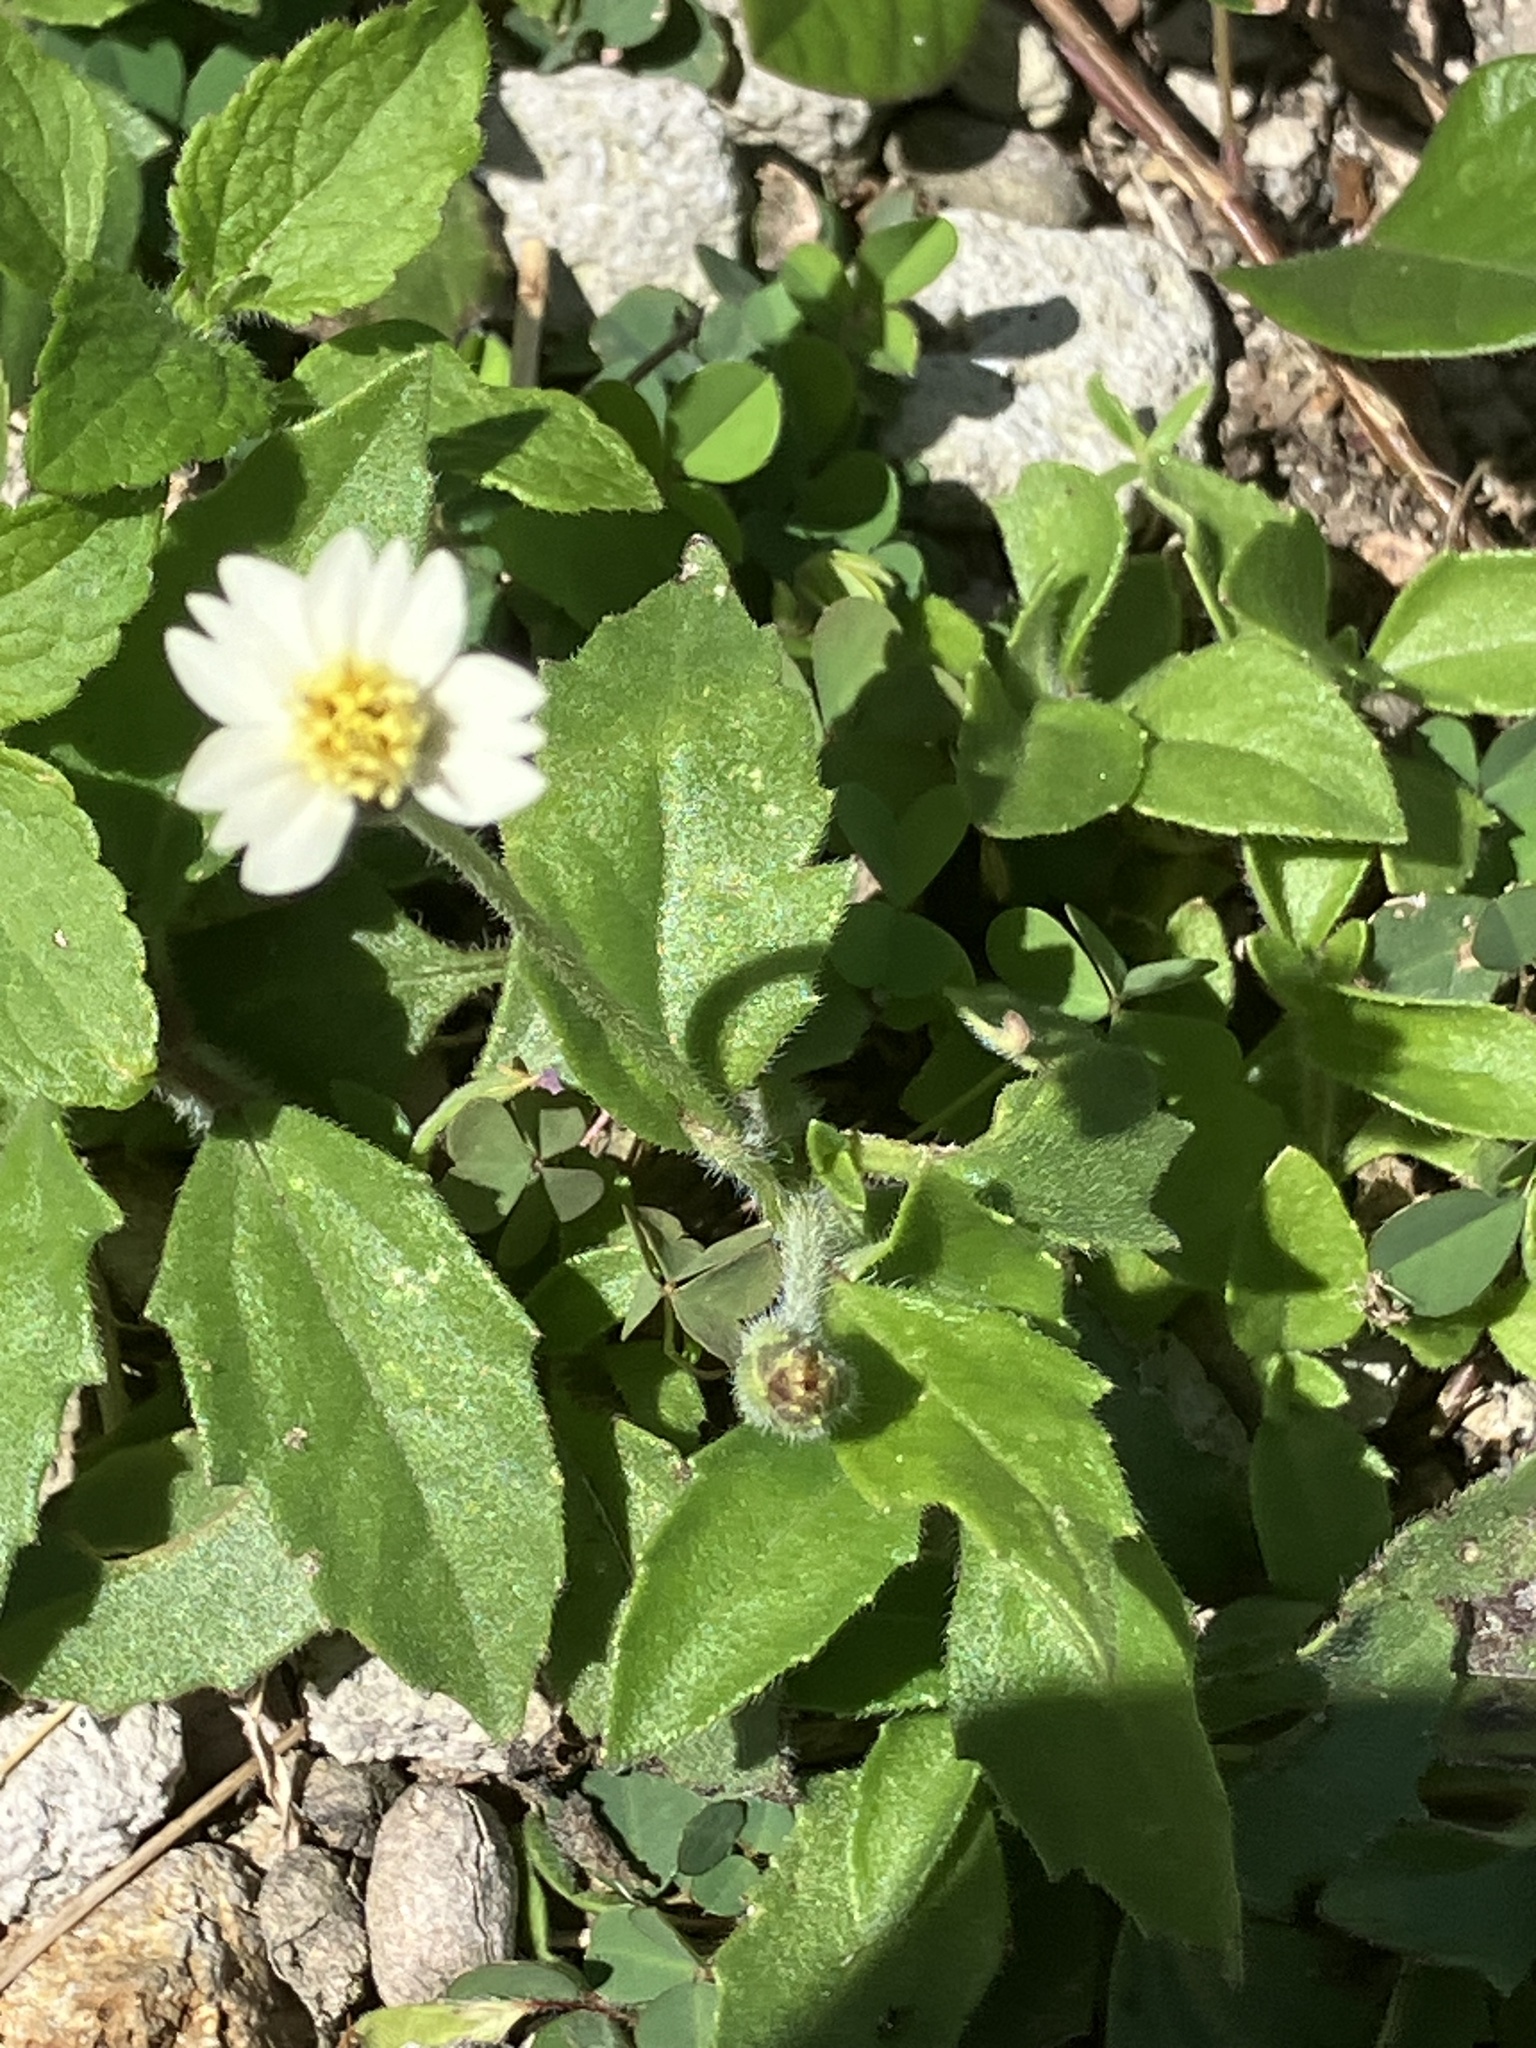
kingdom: Plantae
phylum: Tracheophyta
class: Magnoliopsida
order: Asterales
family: Asteraceae
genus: Tridax
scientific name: Tridax procumbens
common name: Coatbuttons
